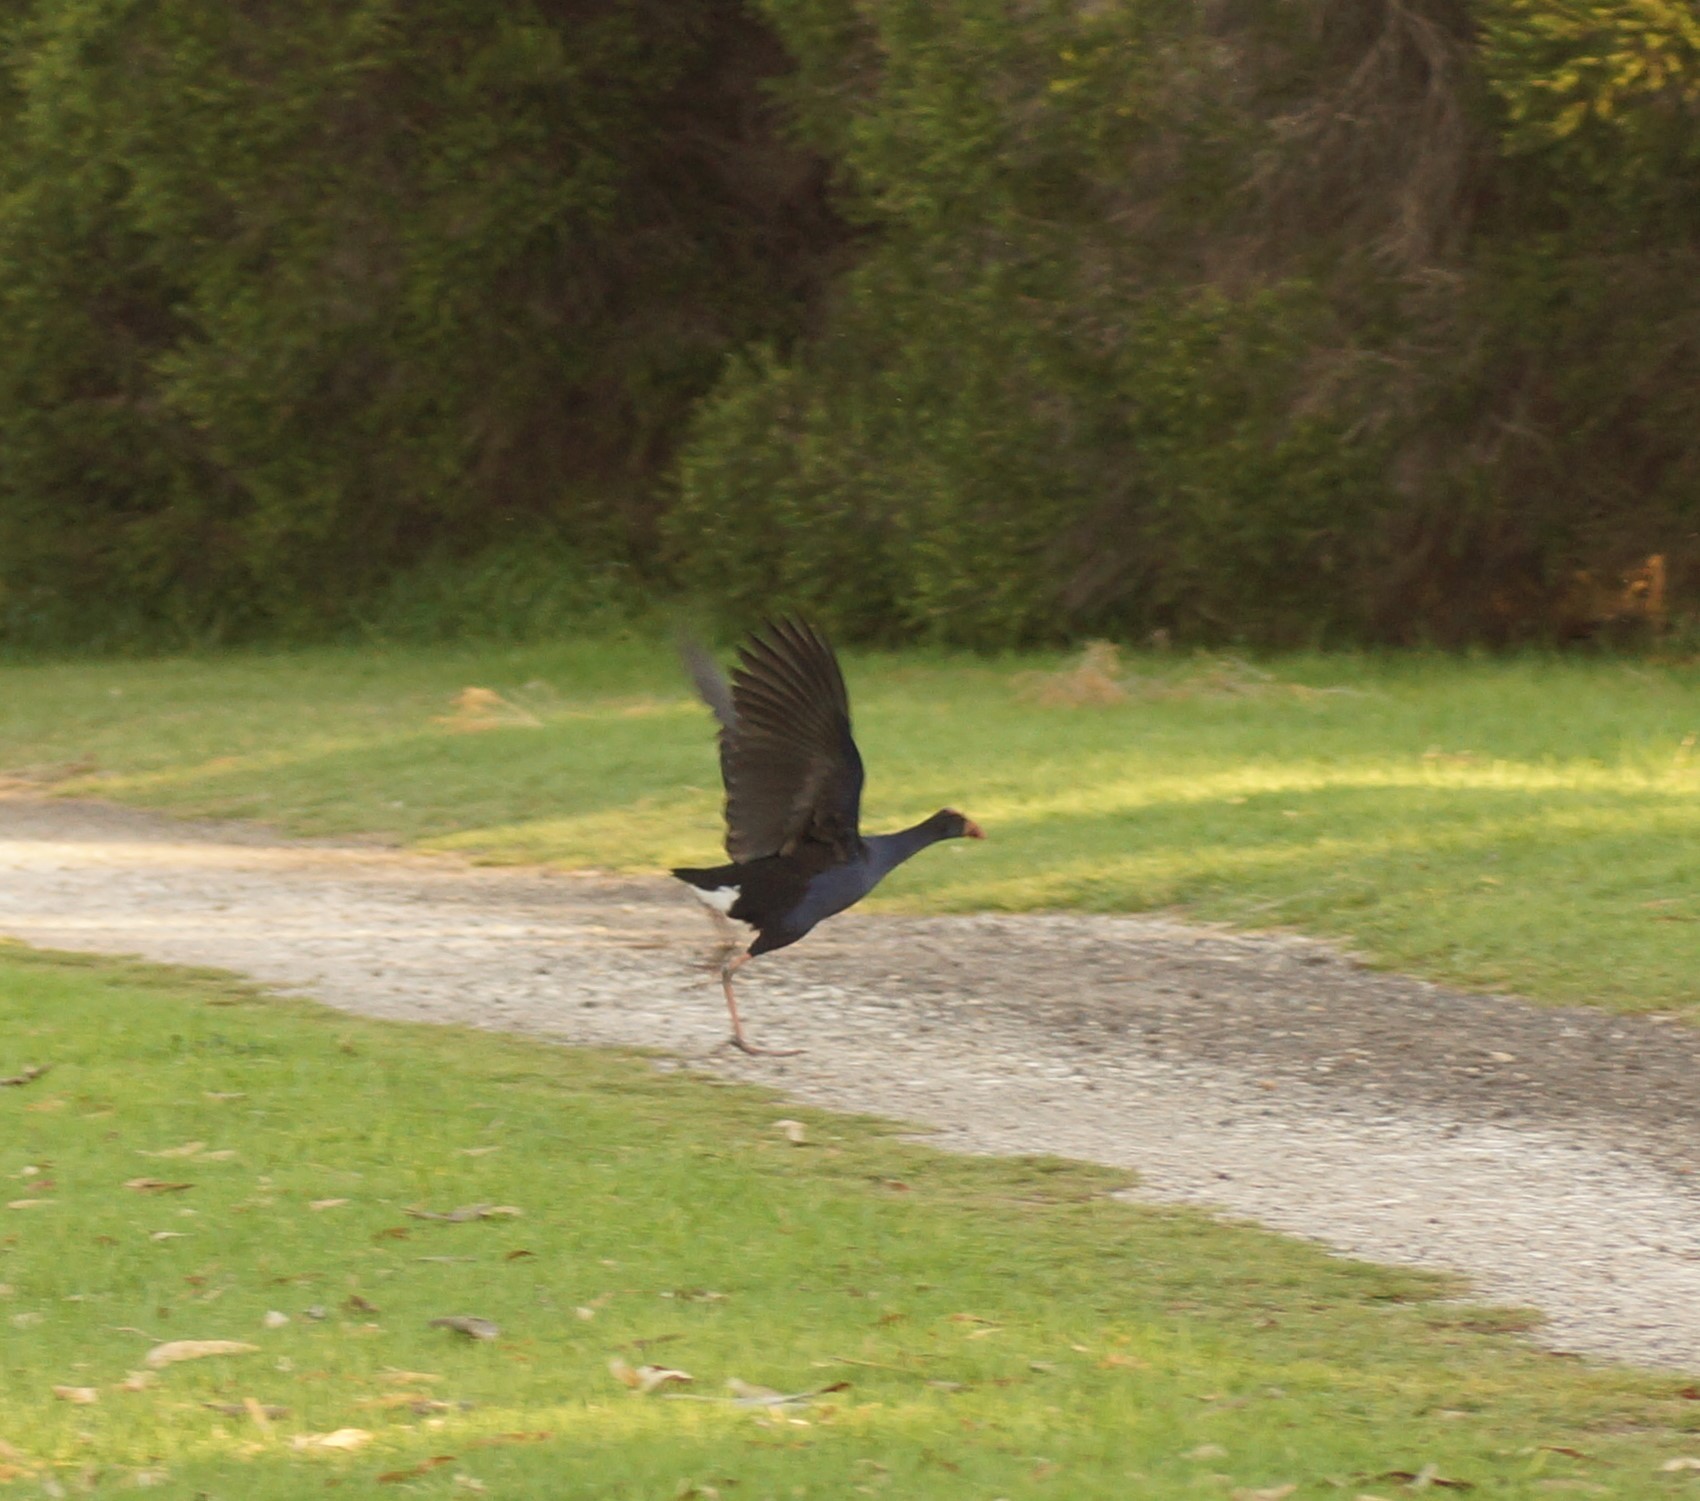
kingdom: Animalia
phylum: Chordata
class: Aves
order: Gruiformes
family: Rallidae
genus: Porphyrio
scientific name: Porphyrio melanotus
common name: Australasian swamphen
